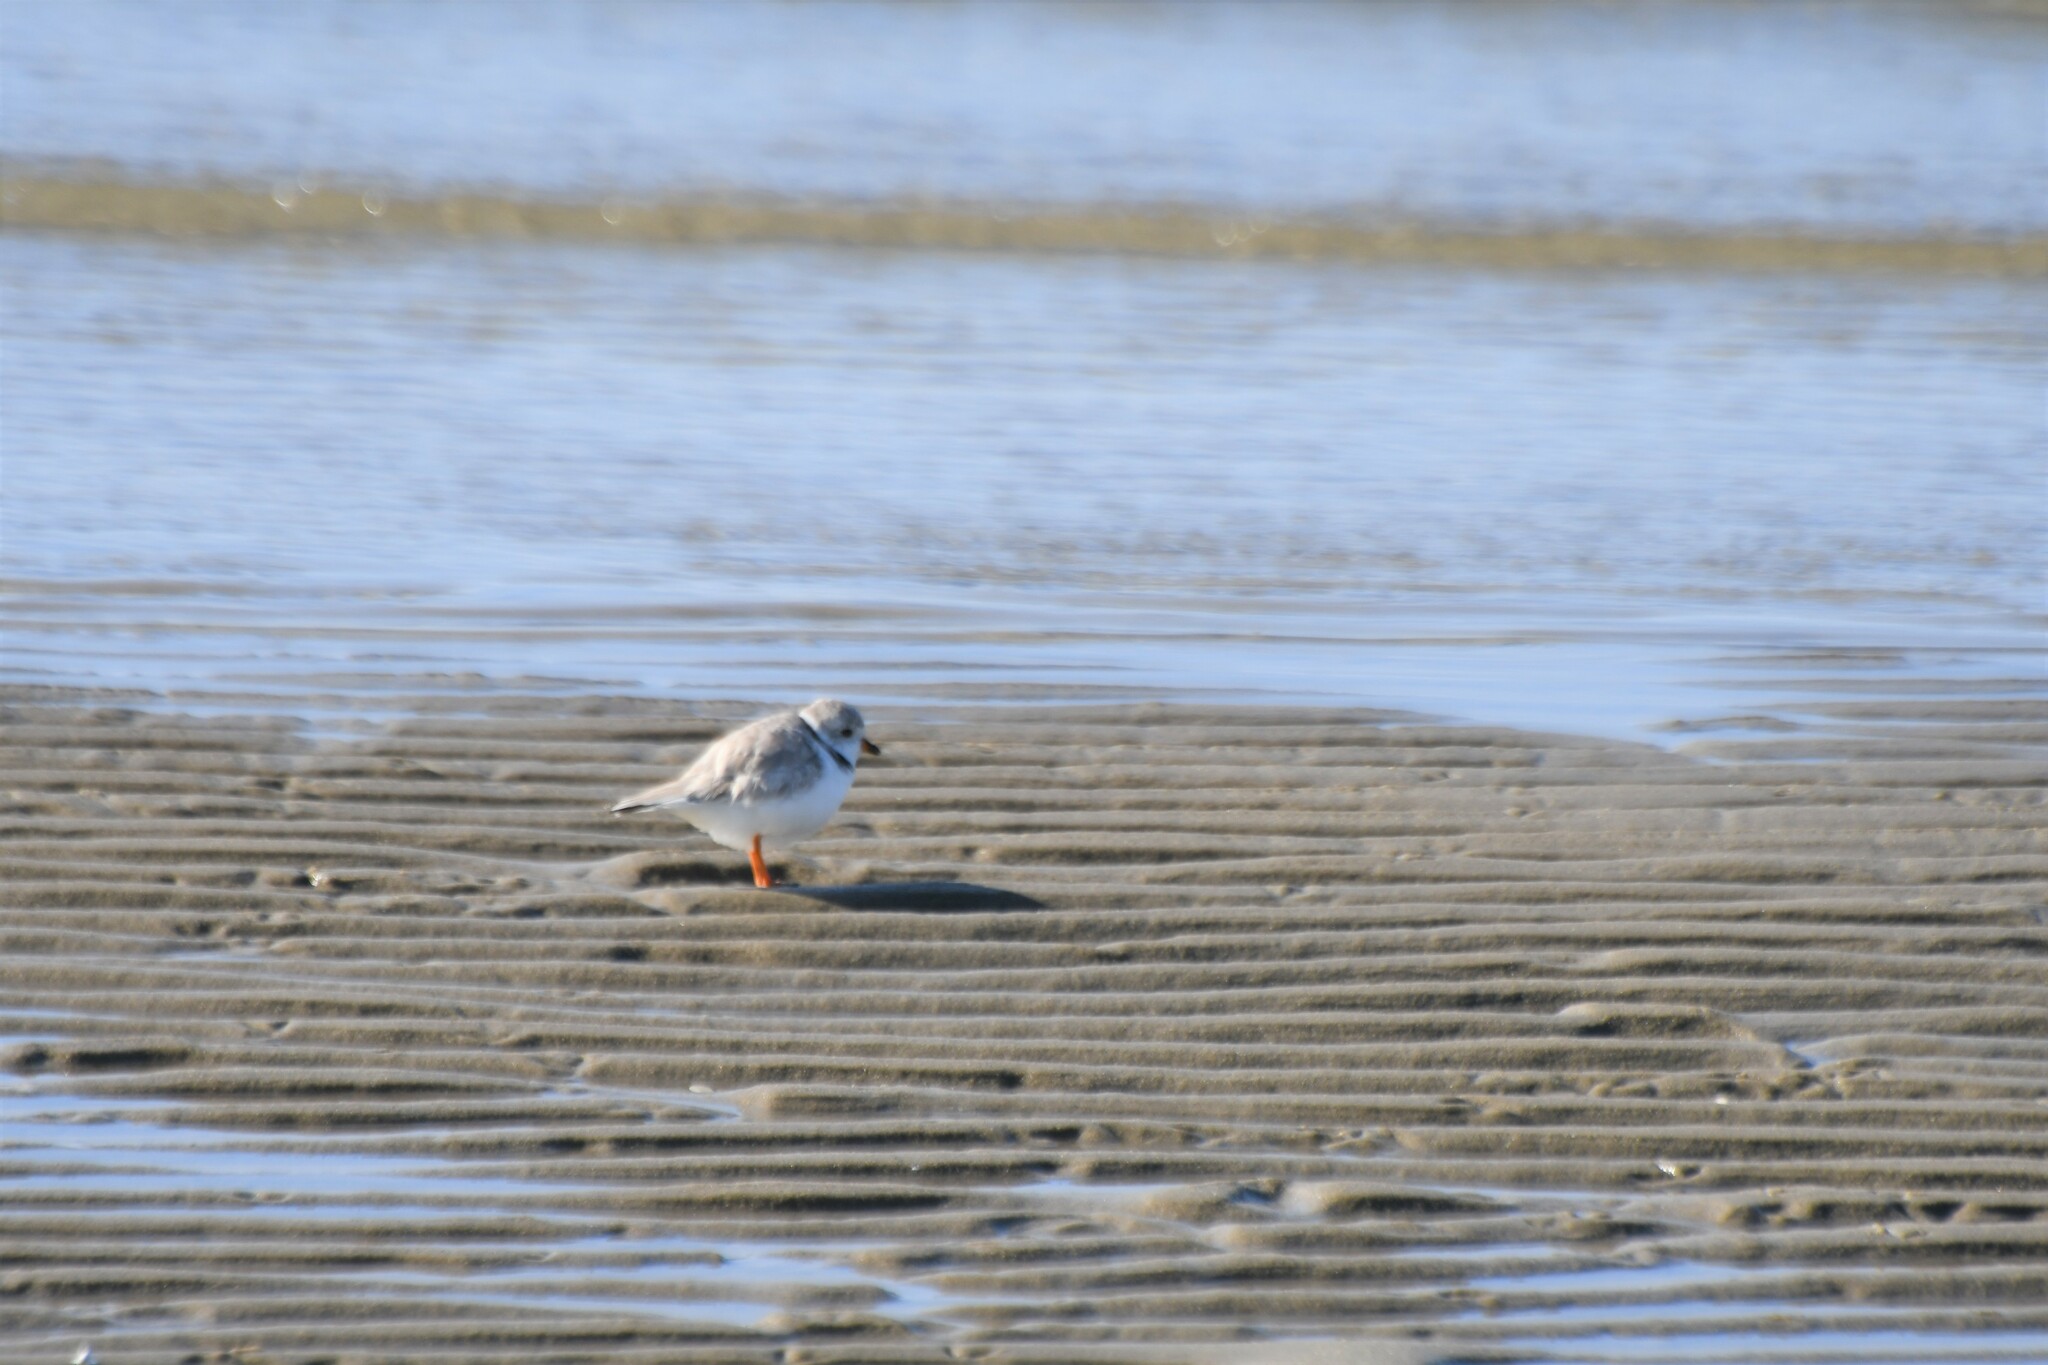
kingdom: Animalia
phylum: Chordata
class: Aves
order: Charadriiformes
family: Charadriidae
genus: Charadrius
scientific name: Charadrius melodus
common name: Piping plover
